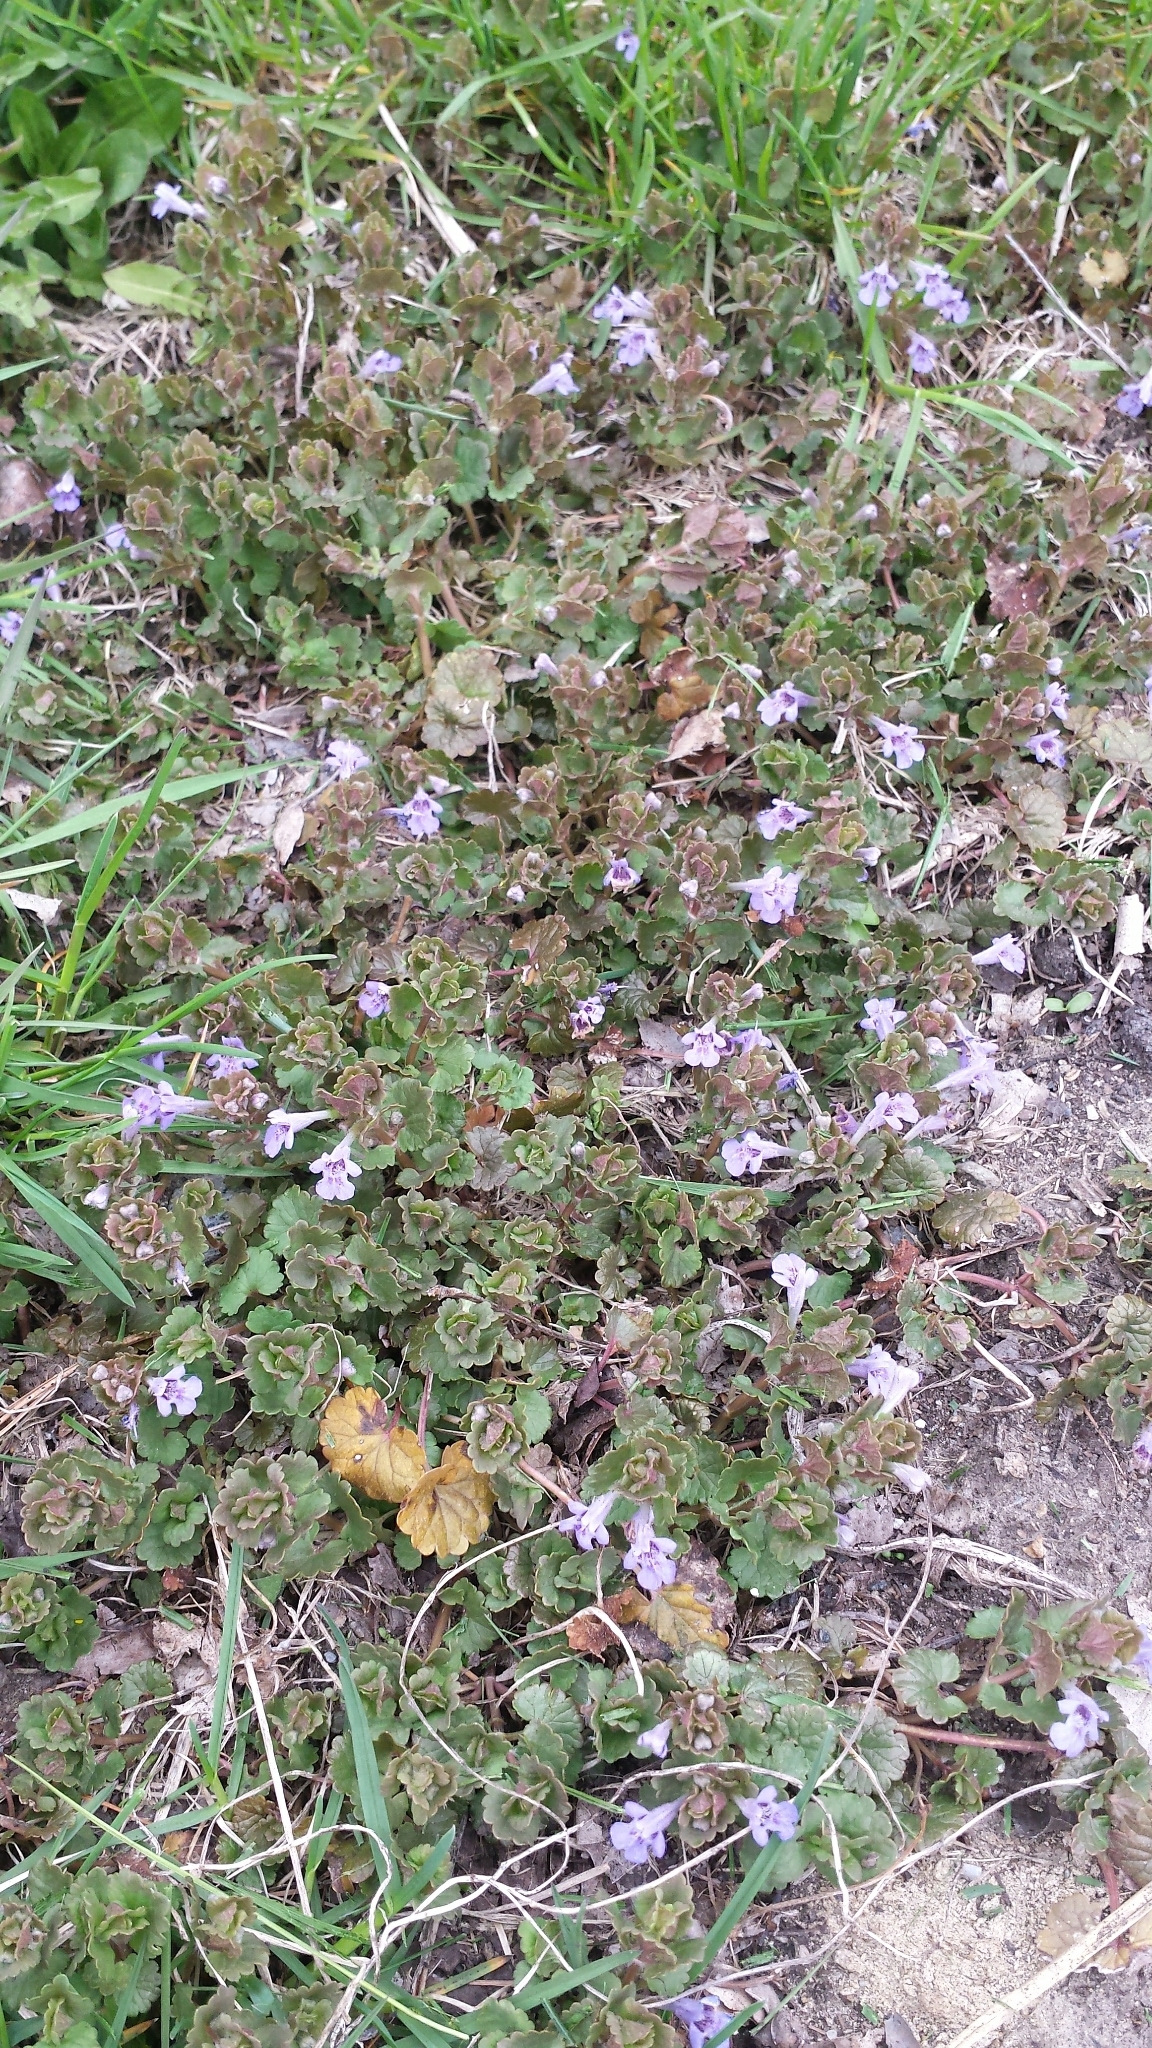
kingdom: Plantae
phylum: Tracheophyta
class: Magnoliopsida
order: Lamiales
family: Lamiaceae
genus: Glechoma
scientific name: Glechoma hederacea
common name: Ground ivy
